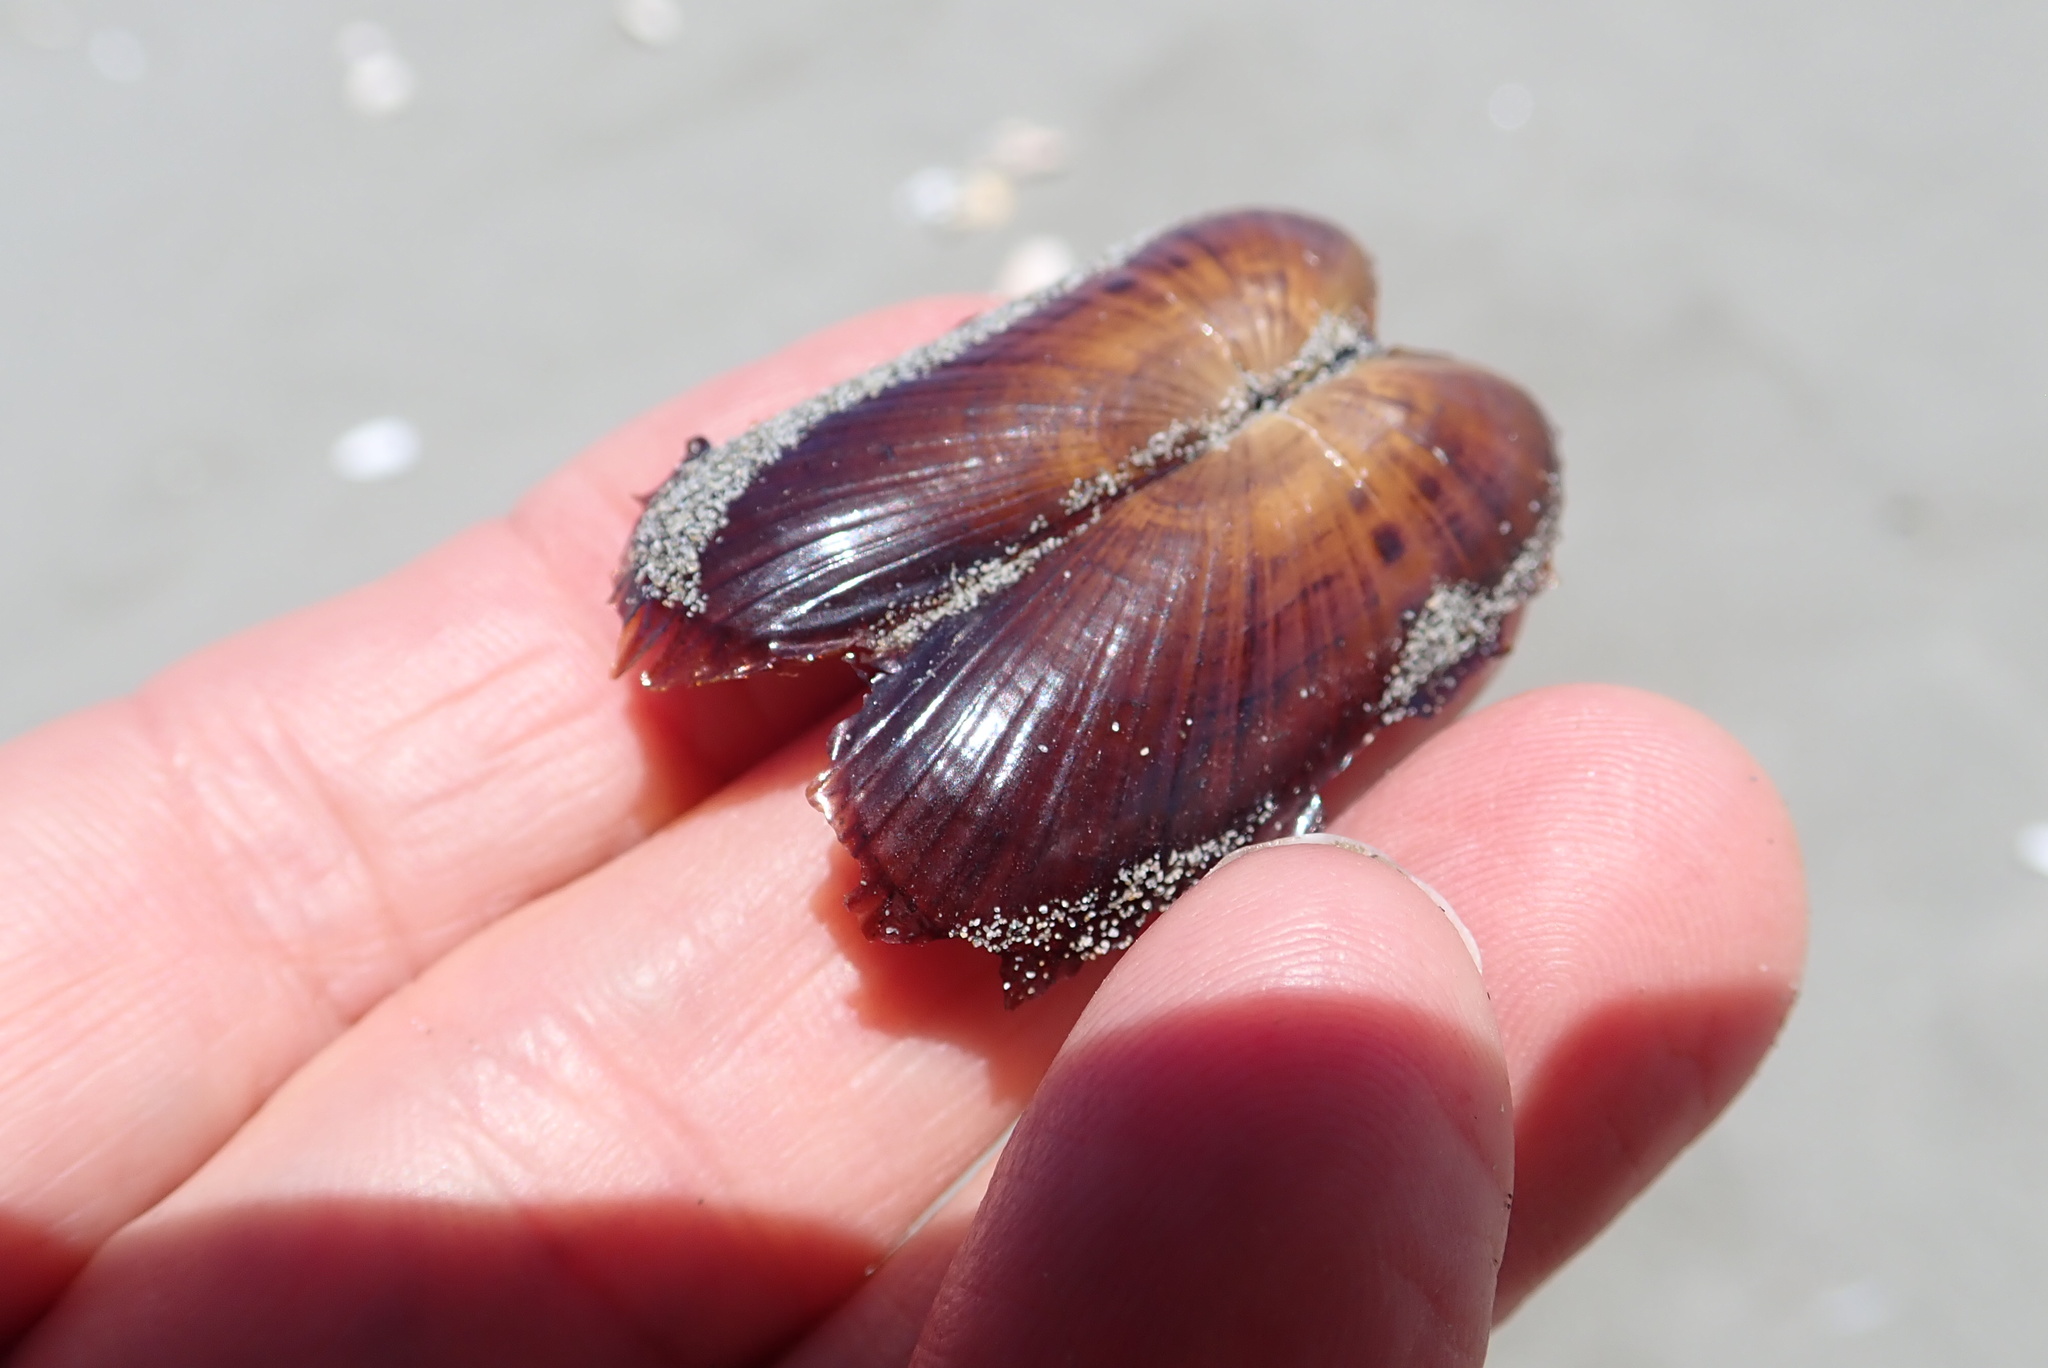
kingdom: Animalia
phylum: Mollusca
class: Bivalvia
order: Solemyida
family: Solemyidae
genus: Solemya
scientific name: Solemya parkinsonii
